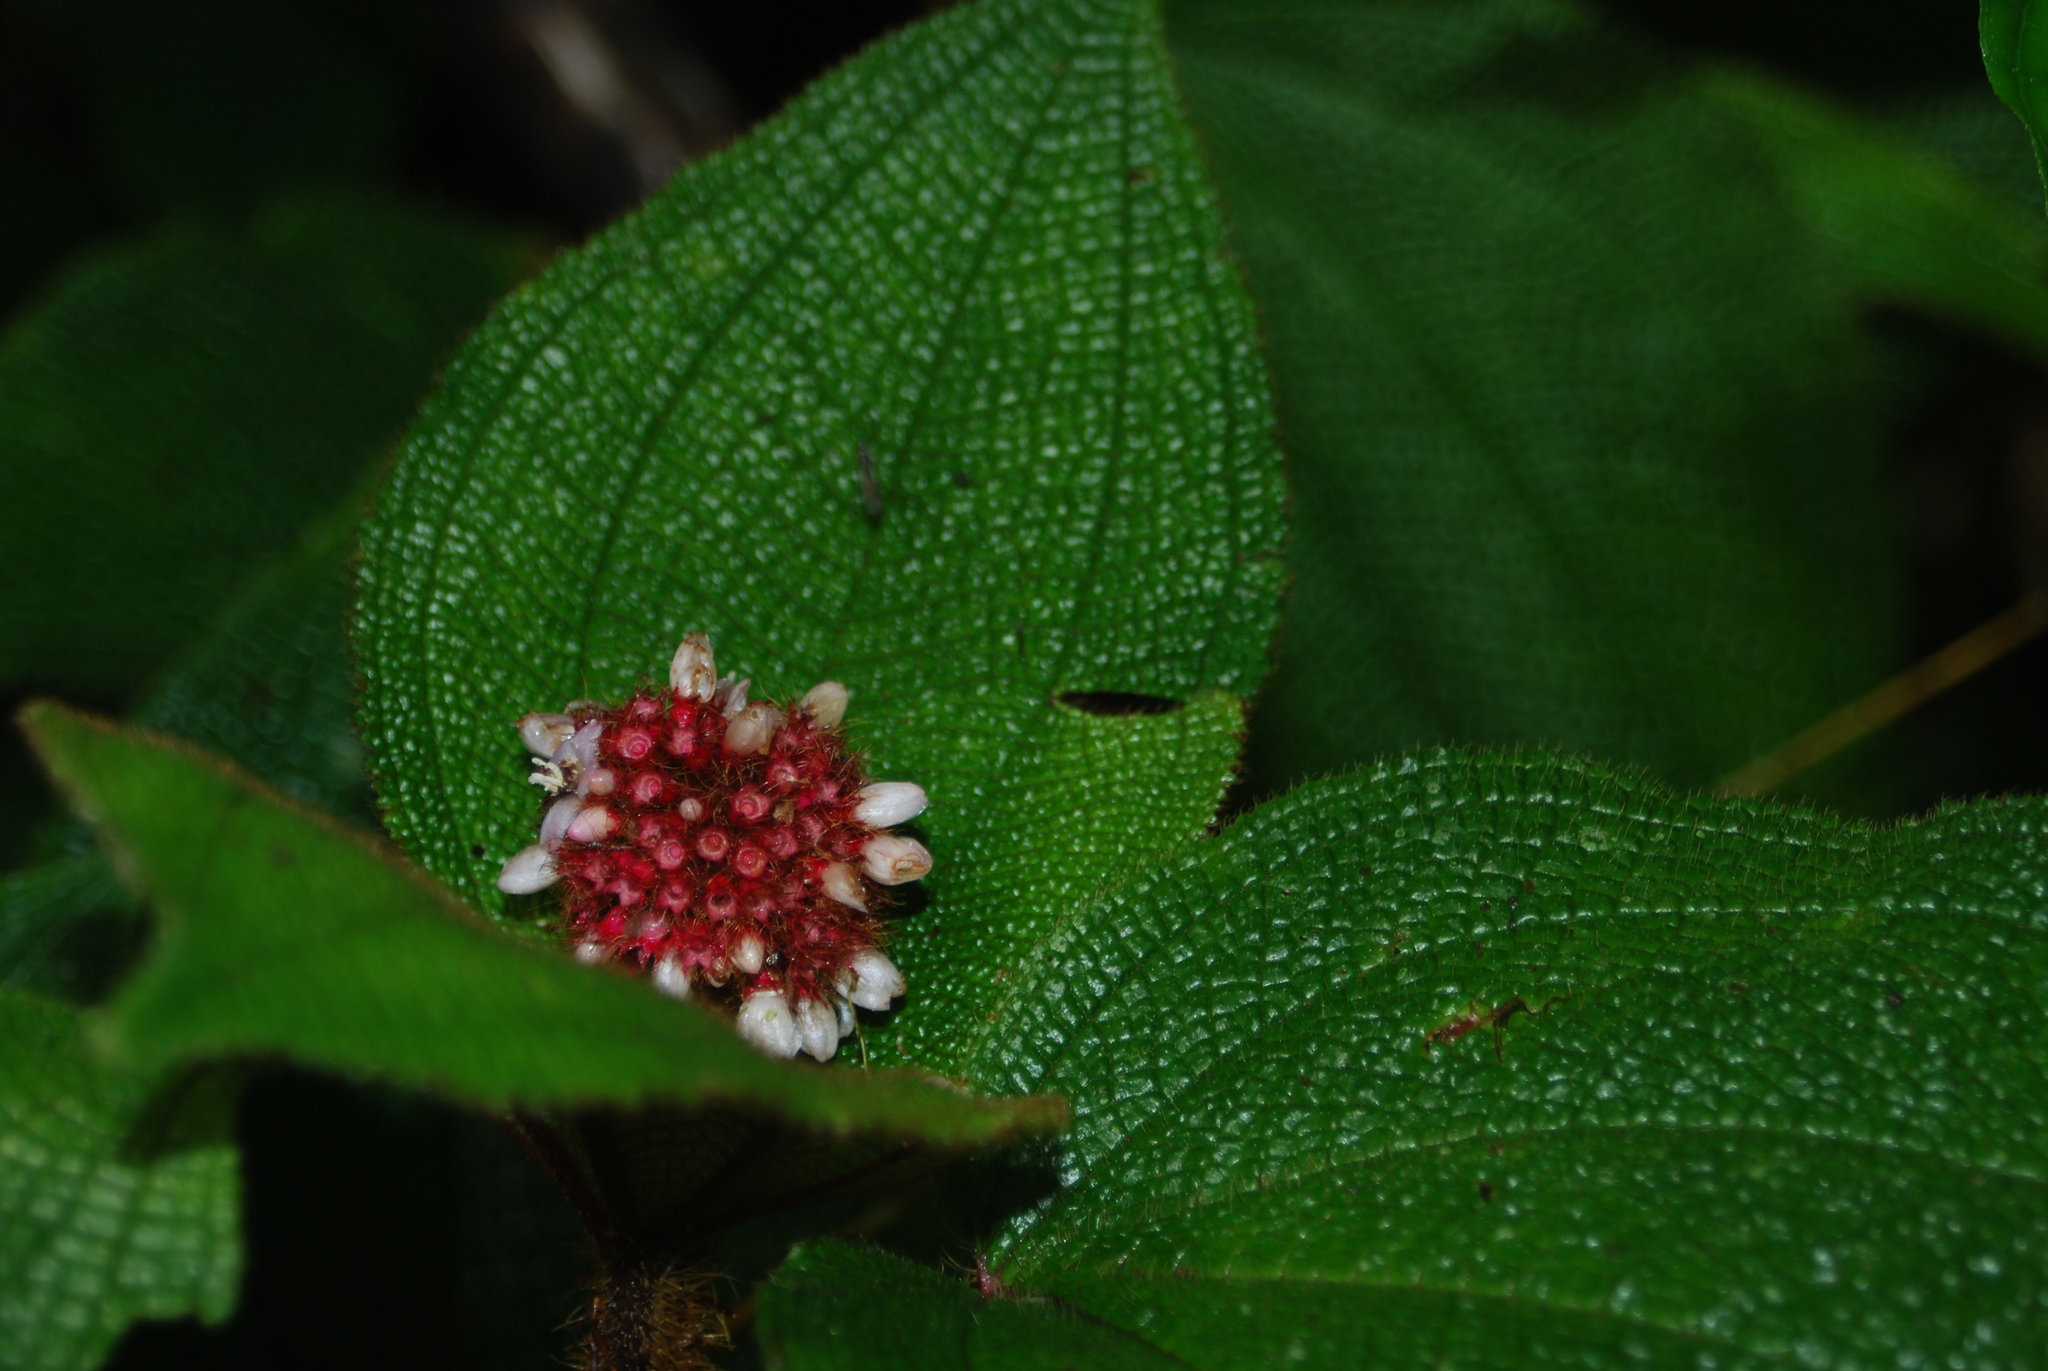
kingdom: Plantae
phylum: Tracheophyta
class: Magnoliopsida
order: Myrtales
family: Melastomataceae
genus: Miconia
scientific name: Miconia reflexa
